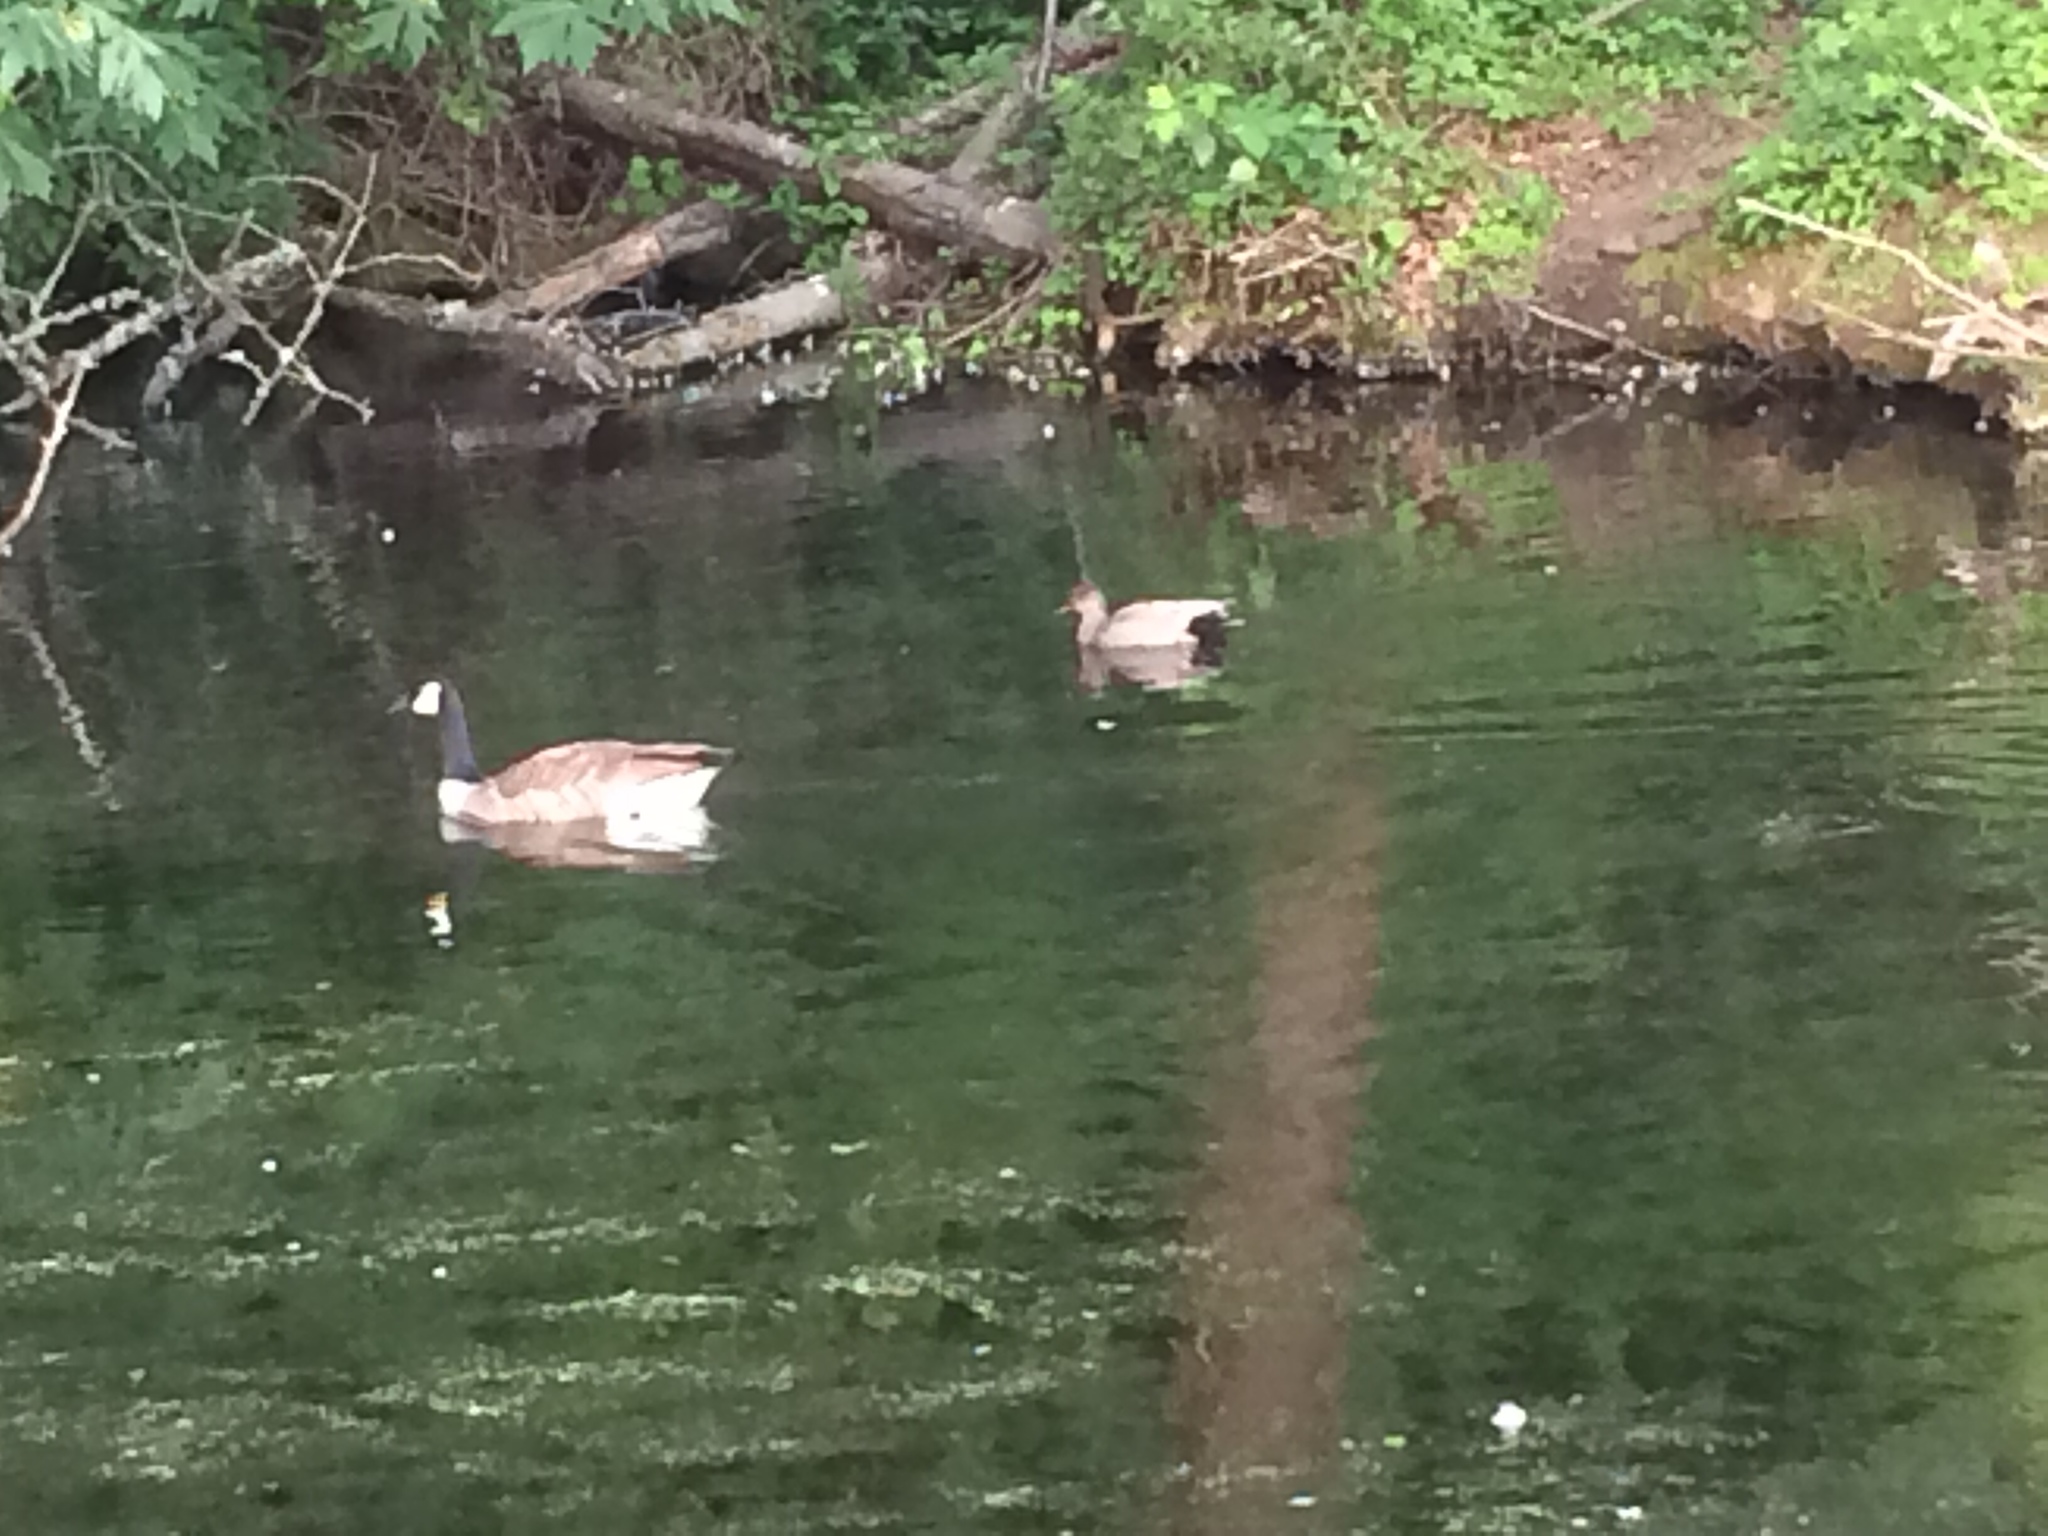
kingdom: Animalia
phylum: Chordata
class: Aves
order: Anseriformes
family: Anatidae
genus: Mareca
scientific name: Mareca strepera
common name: Gadwall
